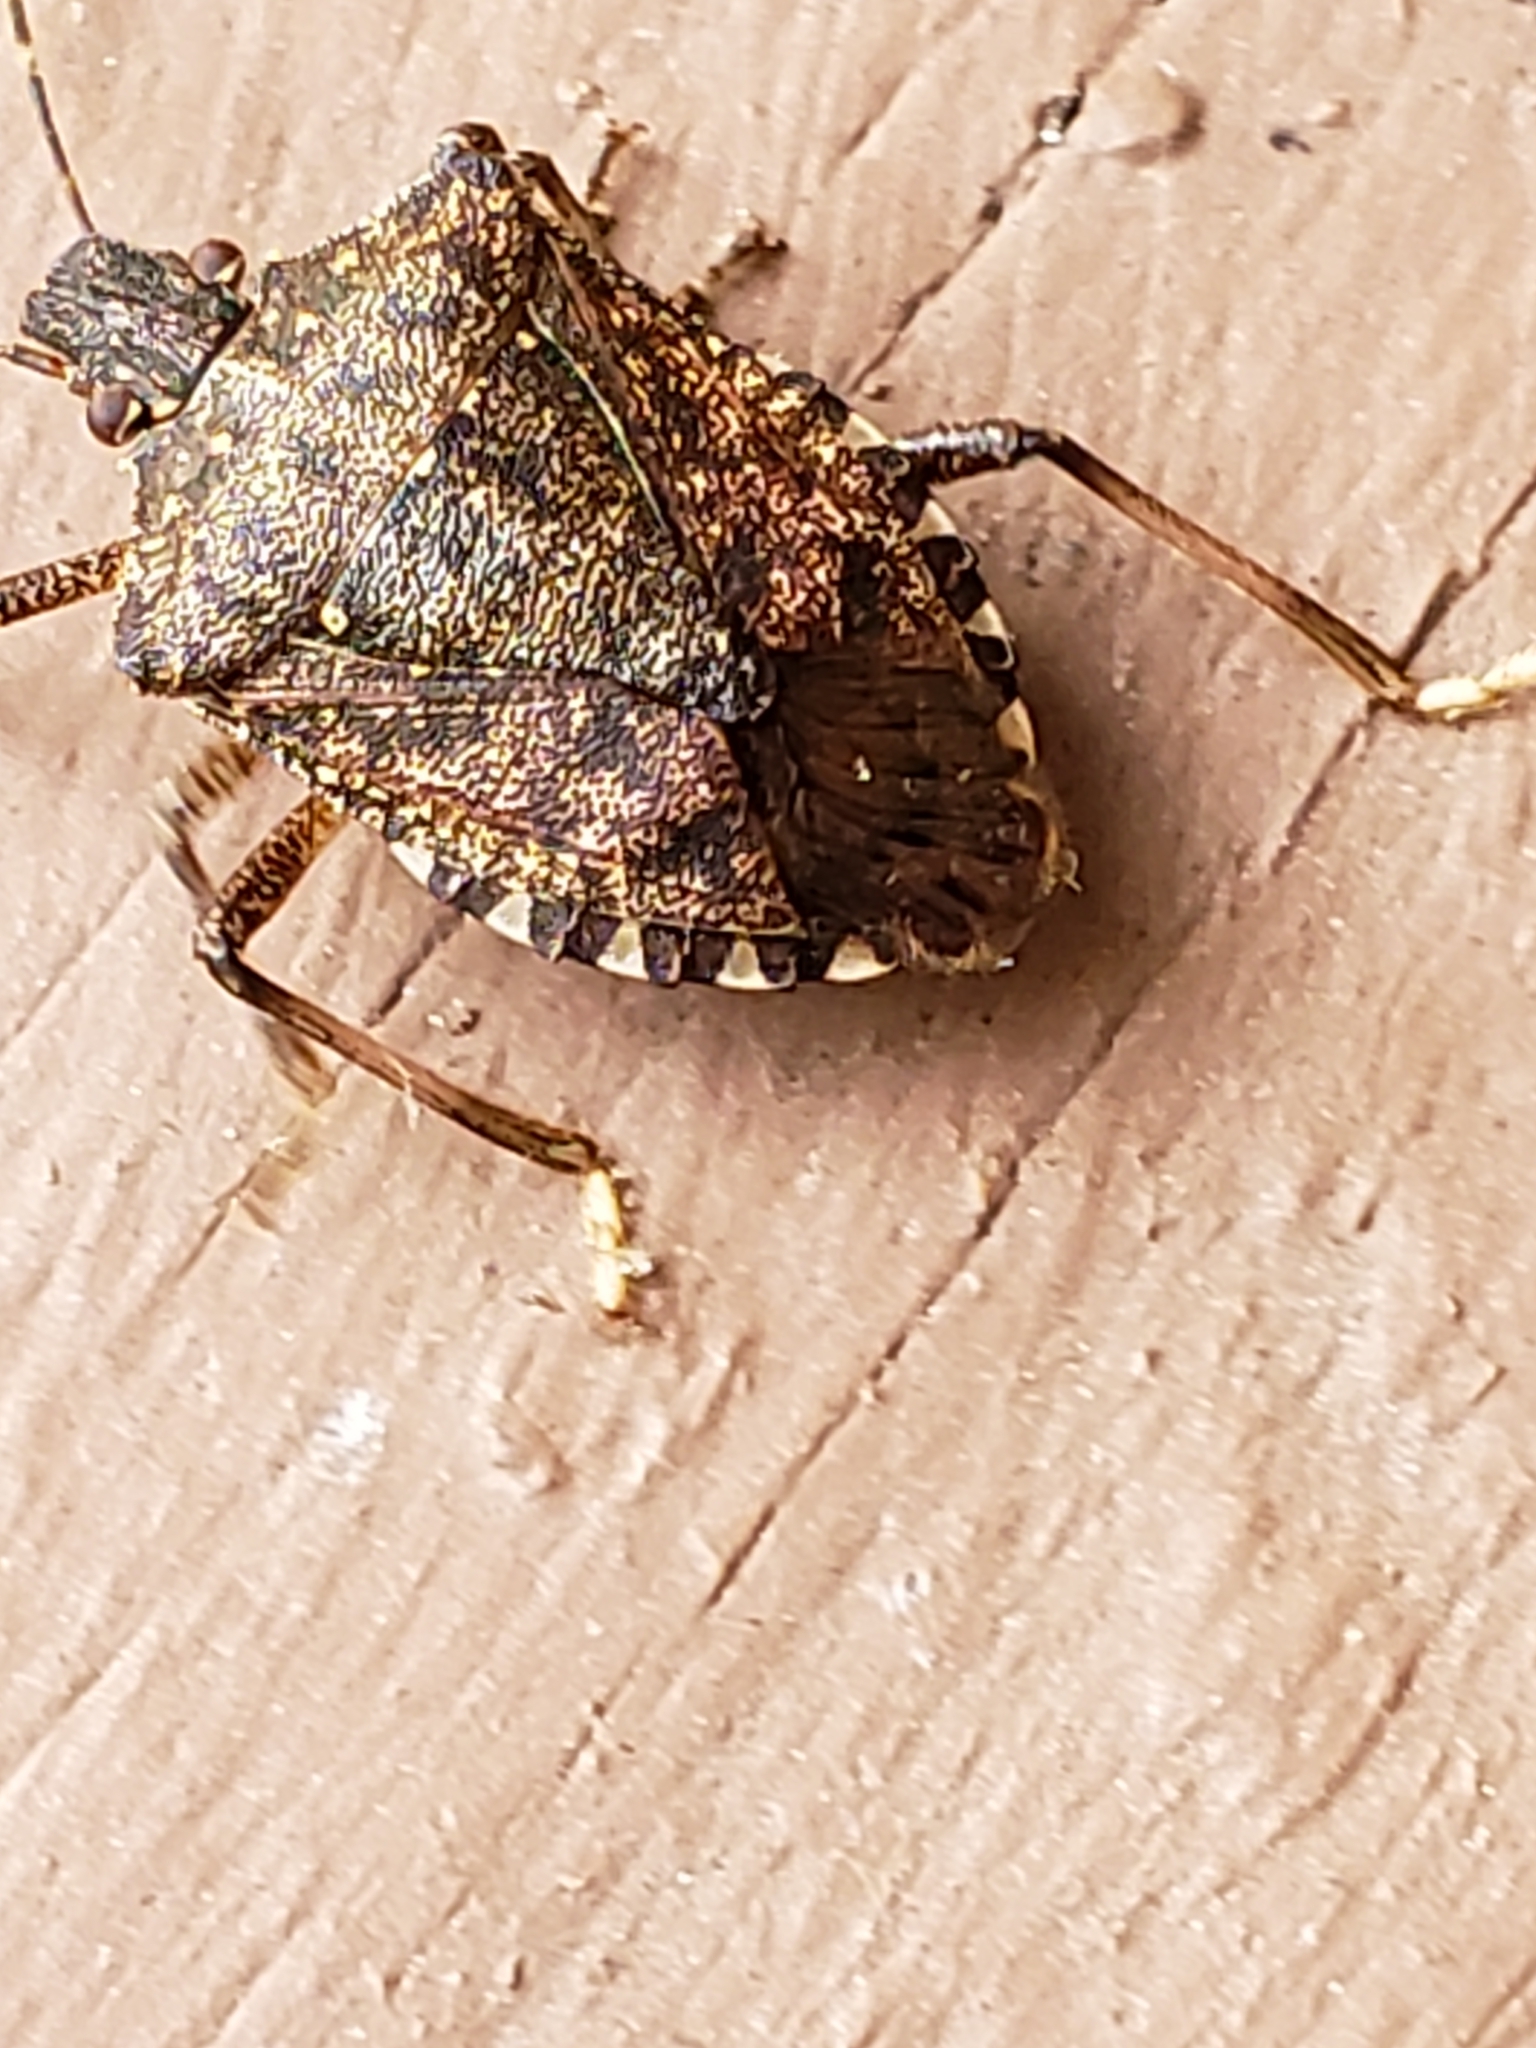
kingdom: Animalia
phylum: Arthropoda
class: Insecta
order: Hemiptera
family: Pentatomidae
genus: Halyomorpha
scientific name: Halyomorpha halys
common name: Brown marmorated stink bug
